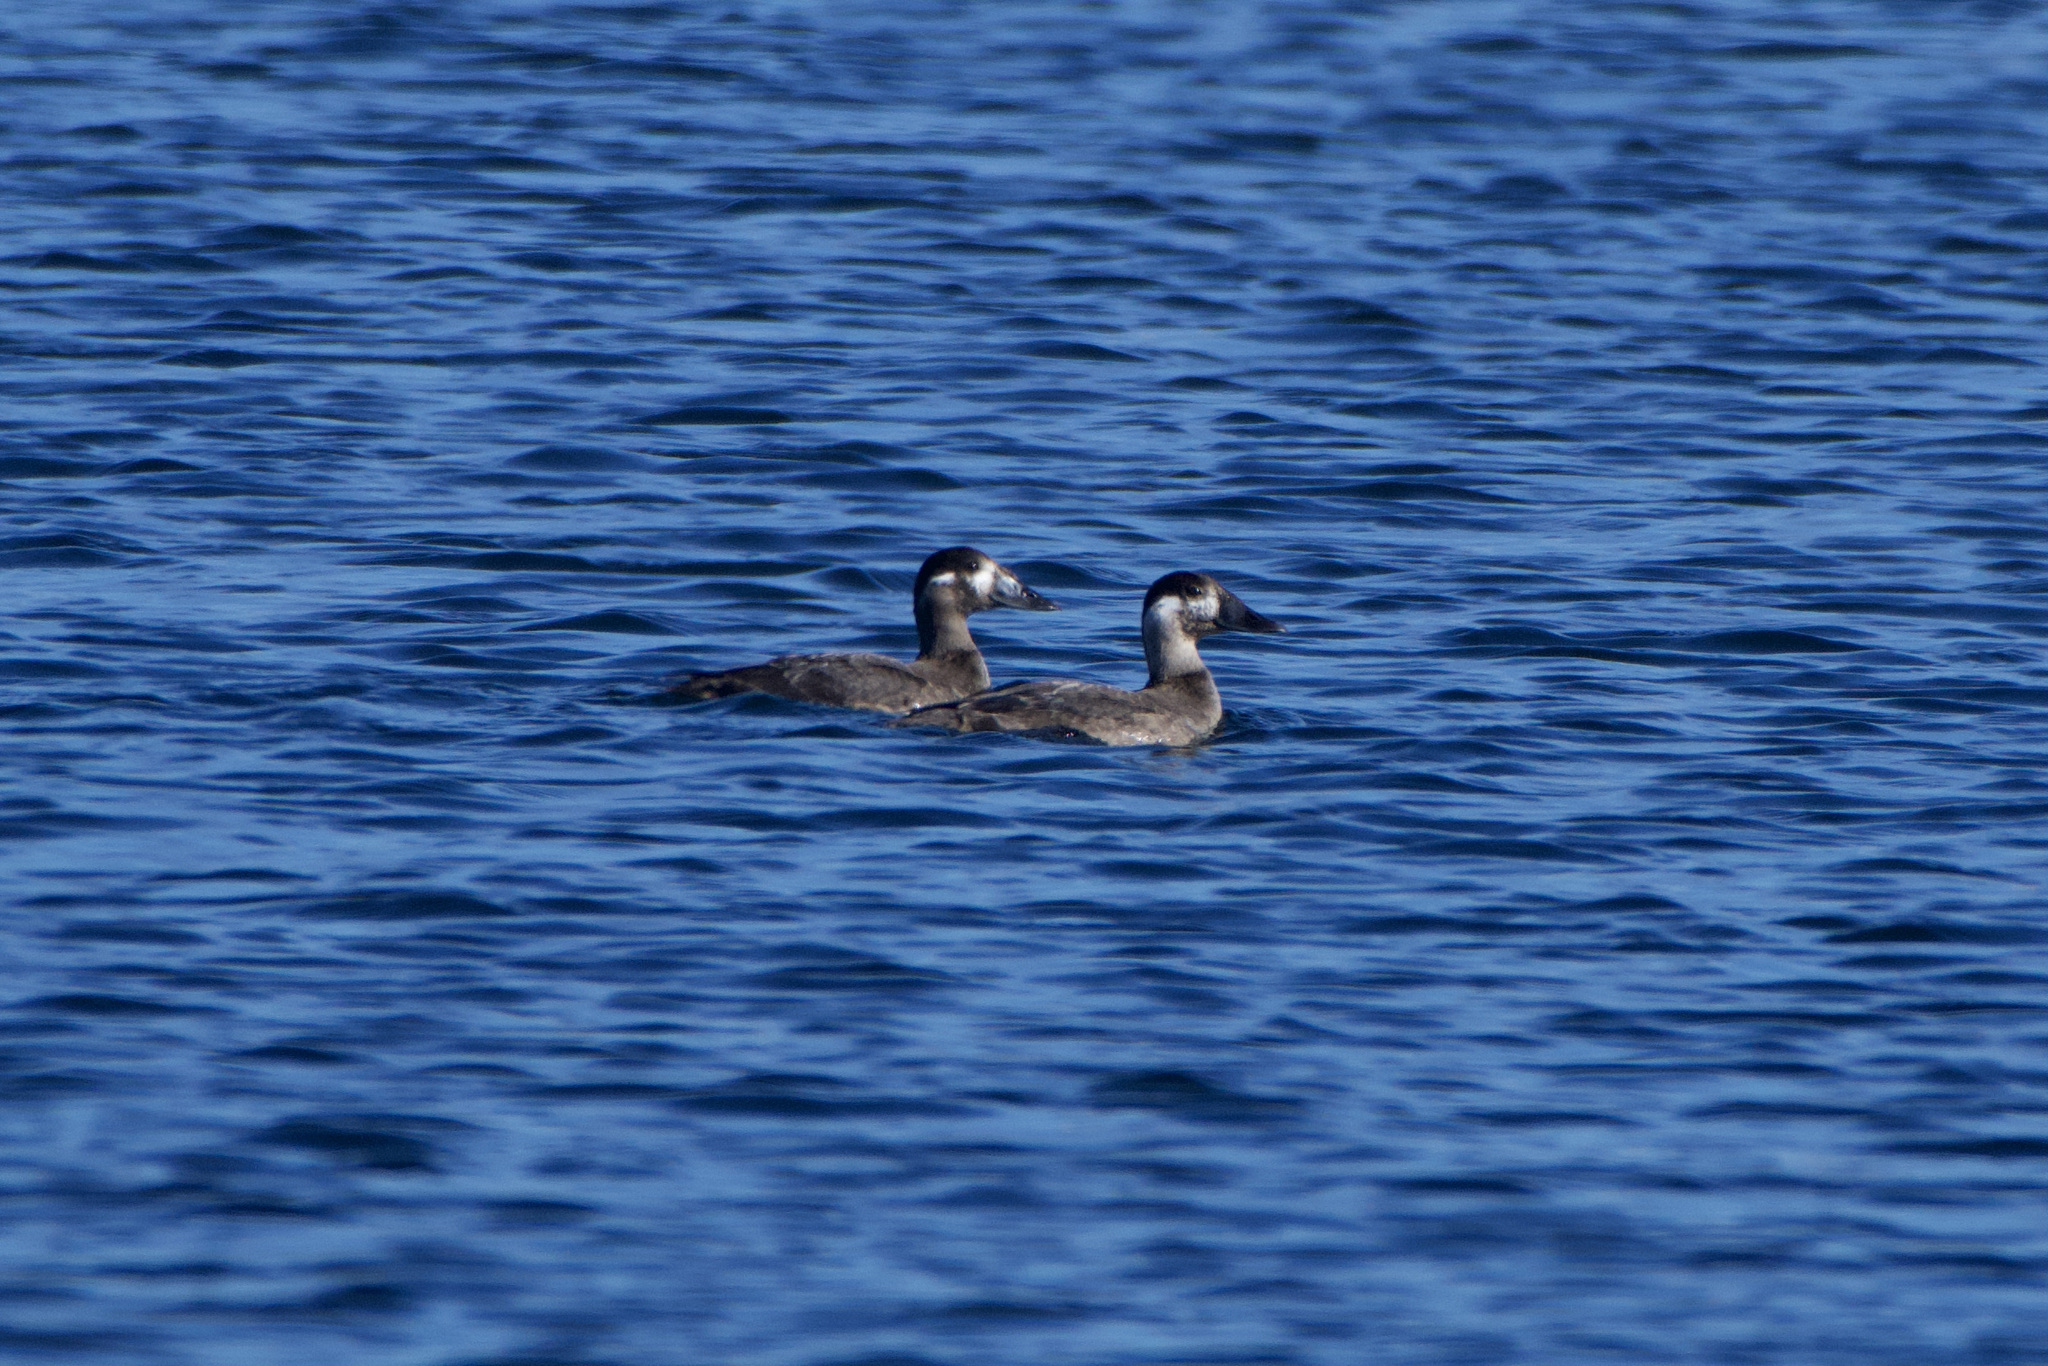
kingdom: Animalia
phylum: Chordata
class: Aves
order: Anseriformes
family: Anatidae
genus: Melanitta
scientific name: Melanitta perspicillata
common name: Surf scoter
